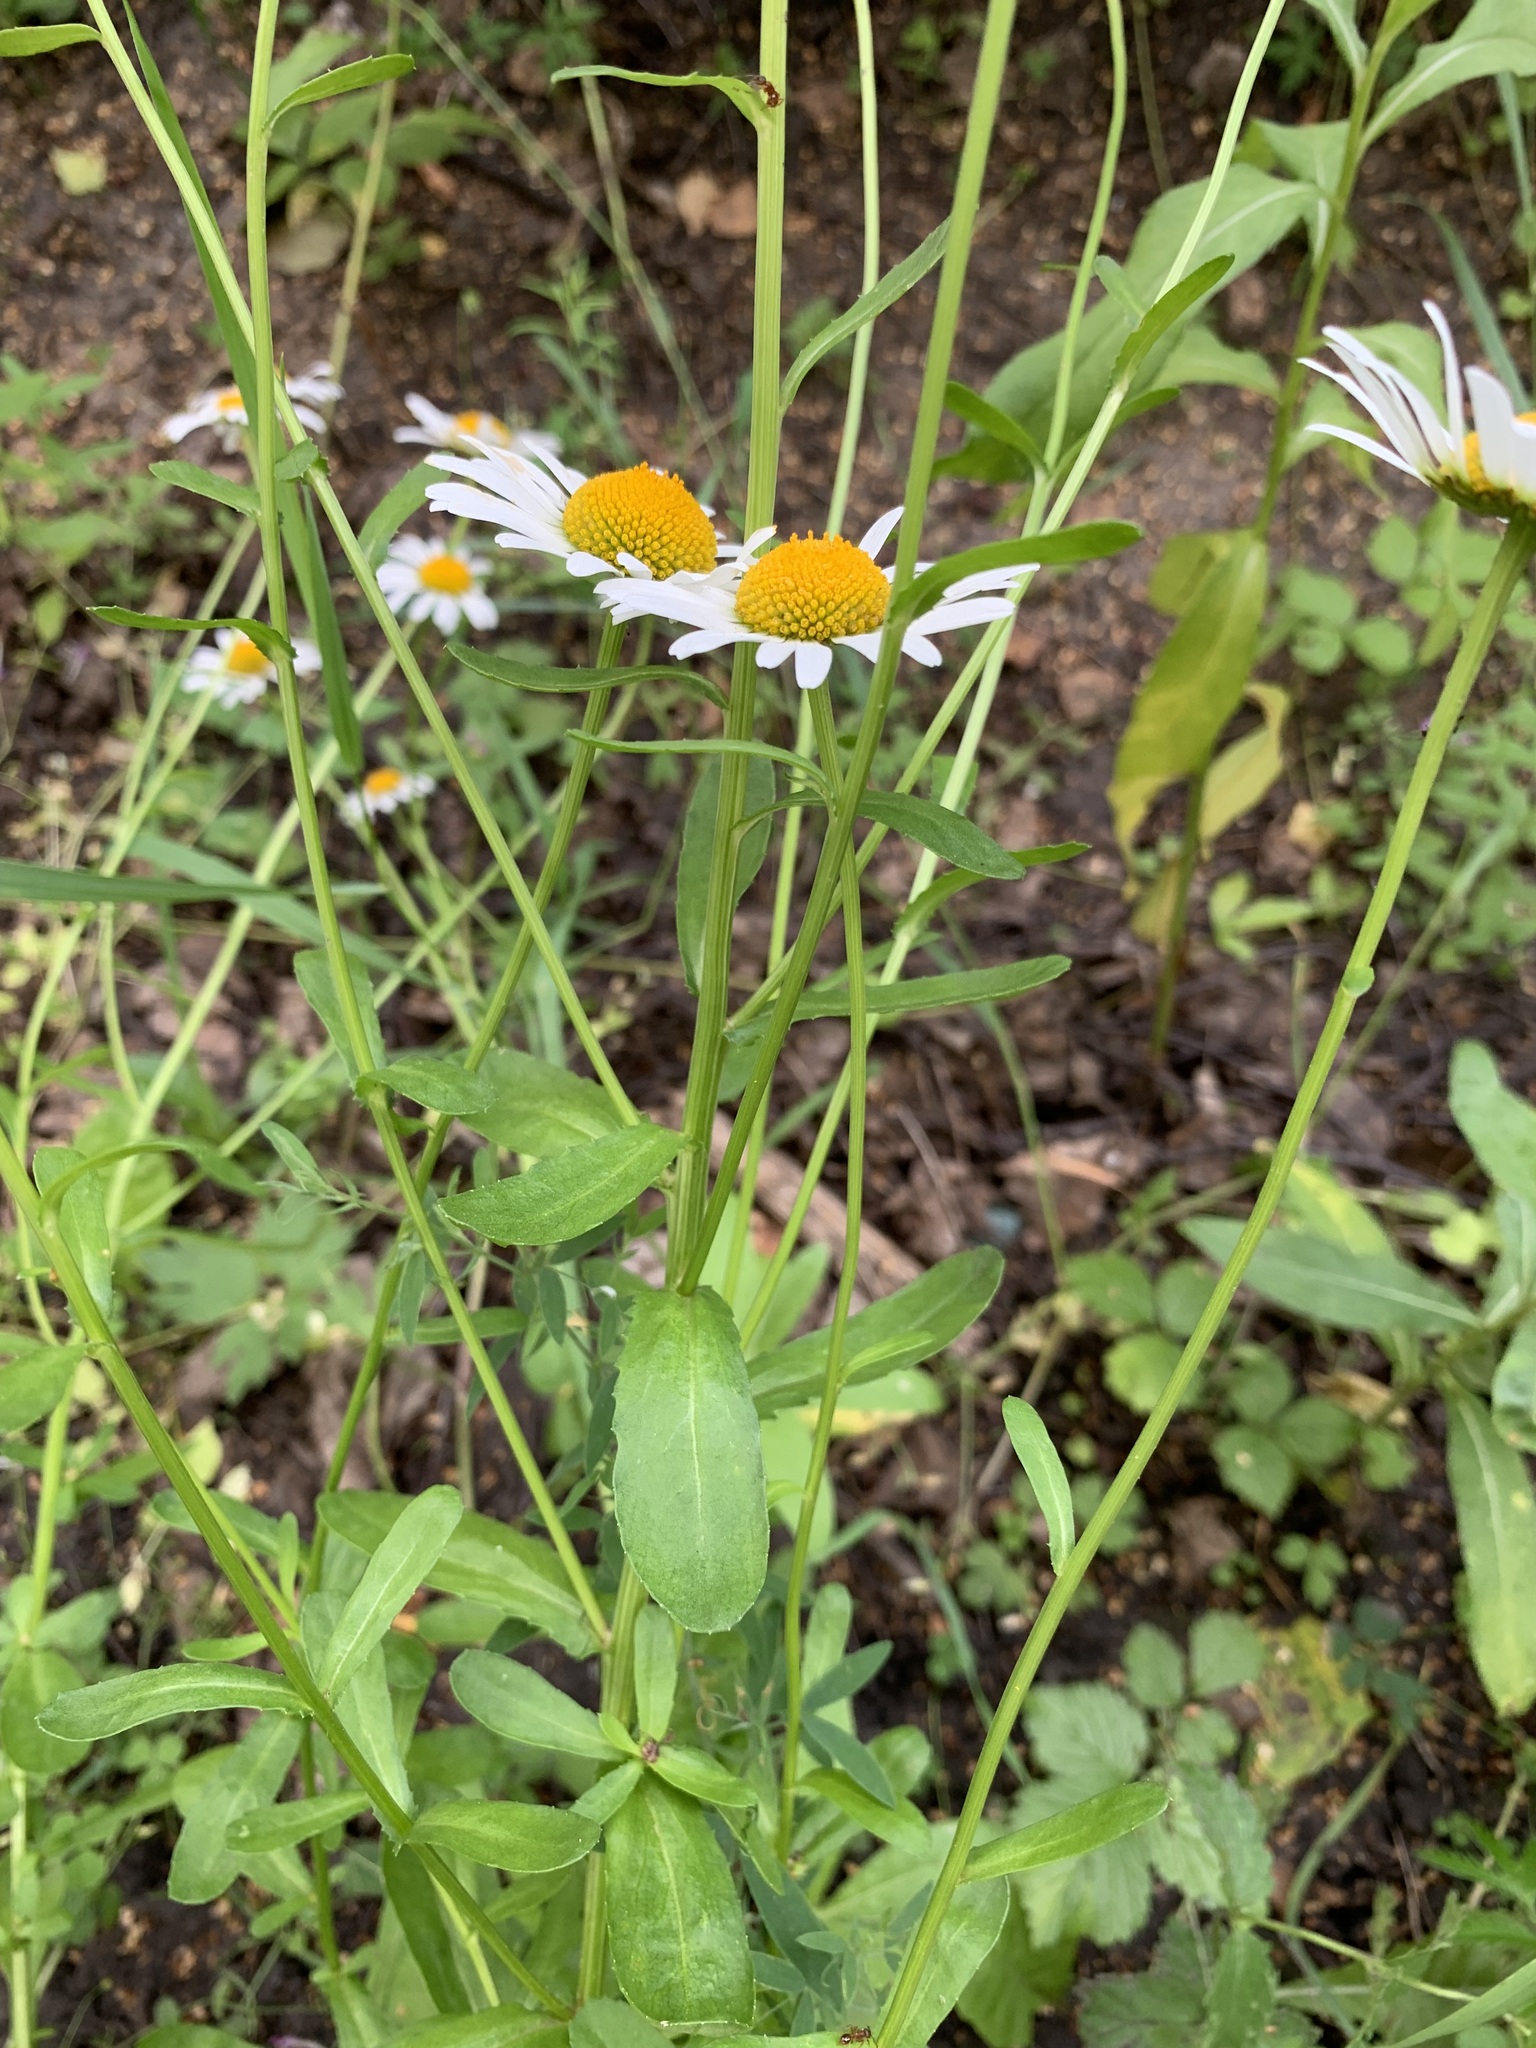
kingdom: Plantae
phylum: Tracheophyta
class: Magnoliopsida
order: Asterales
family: Asteraceae
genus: Leucanthemum
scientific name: Leucanthemum ircutianum
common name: Daisy
